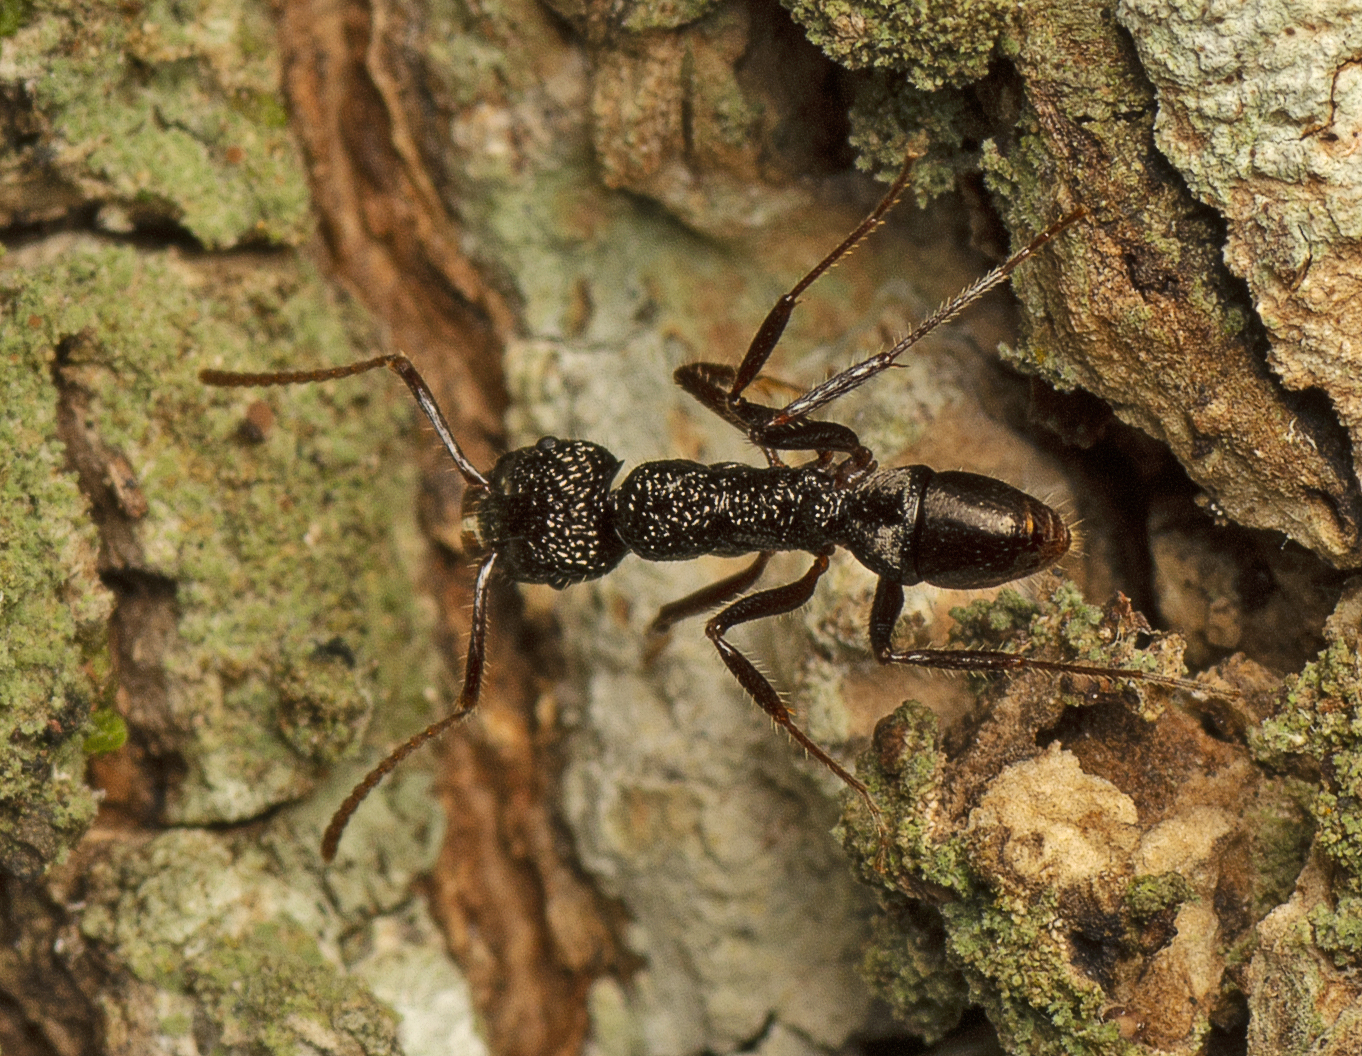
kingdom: Animalia
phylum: Arthropoda
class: Insecta
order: Hymenoptera
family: Formicidae
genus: Rhytidoponera
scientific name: Rhytidoponera impressa
